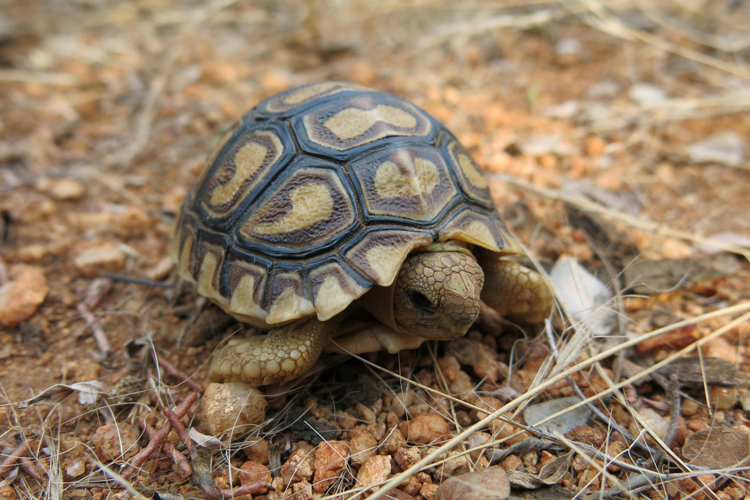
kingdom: Animalia
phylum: Chordata
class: Testudines
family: Testudinidae
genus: Stigmochelys
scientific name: Stigmochelys pardalis
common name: Leopard tortoise
